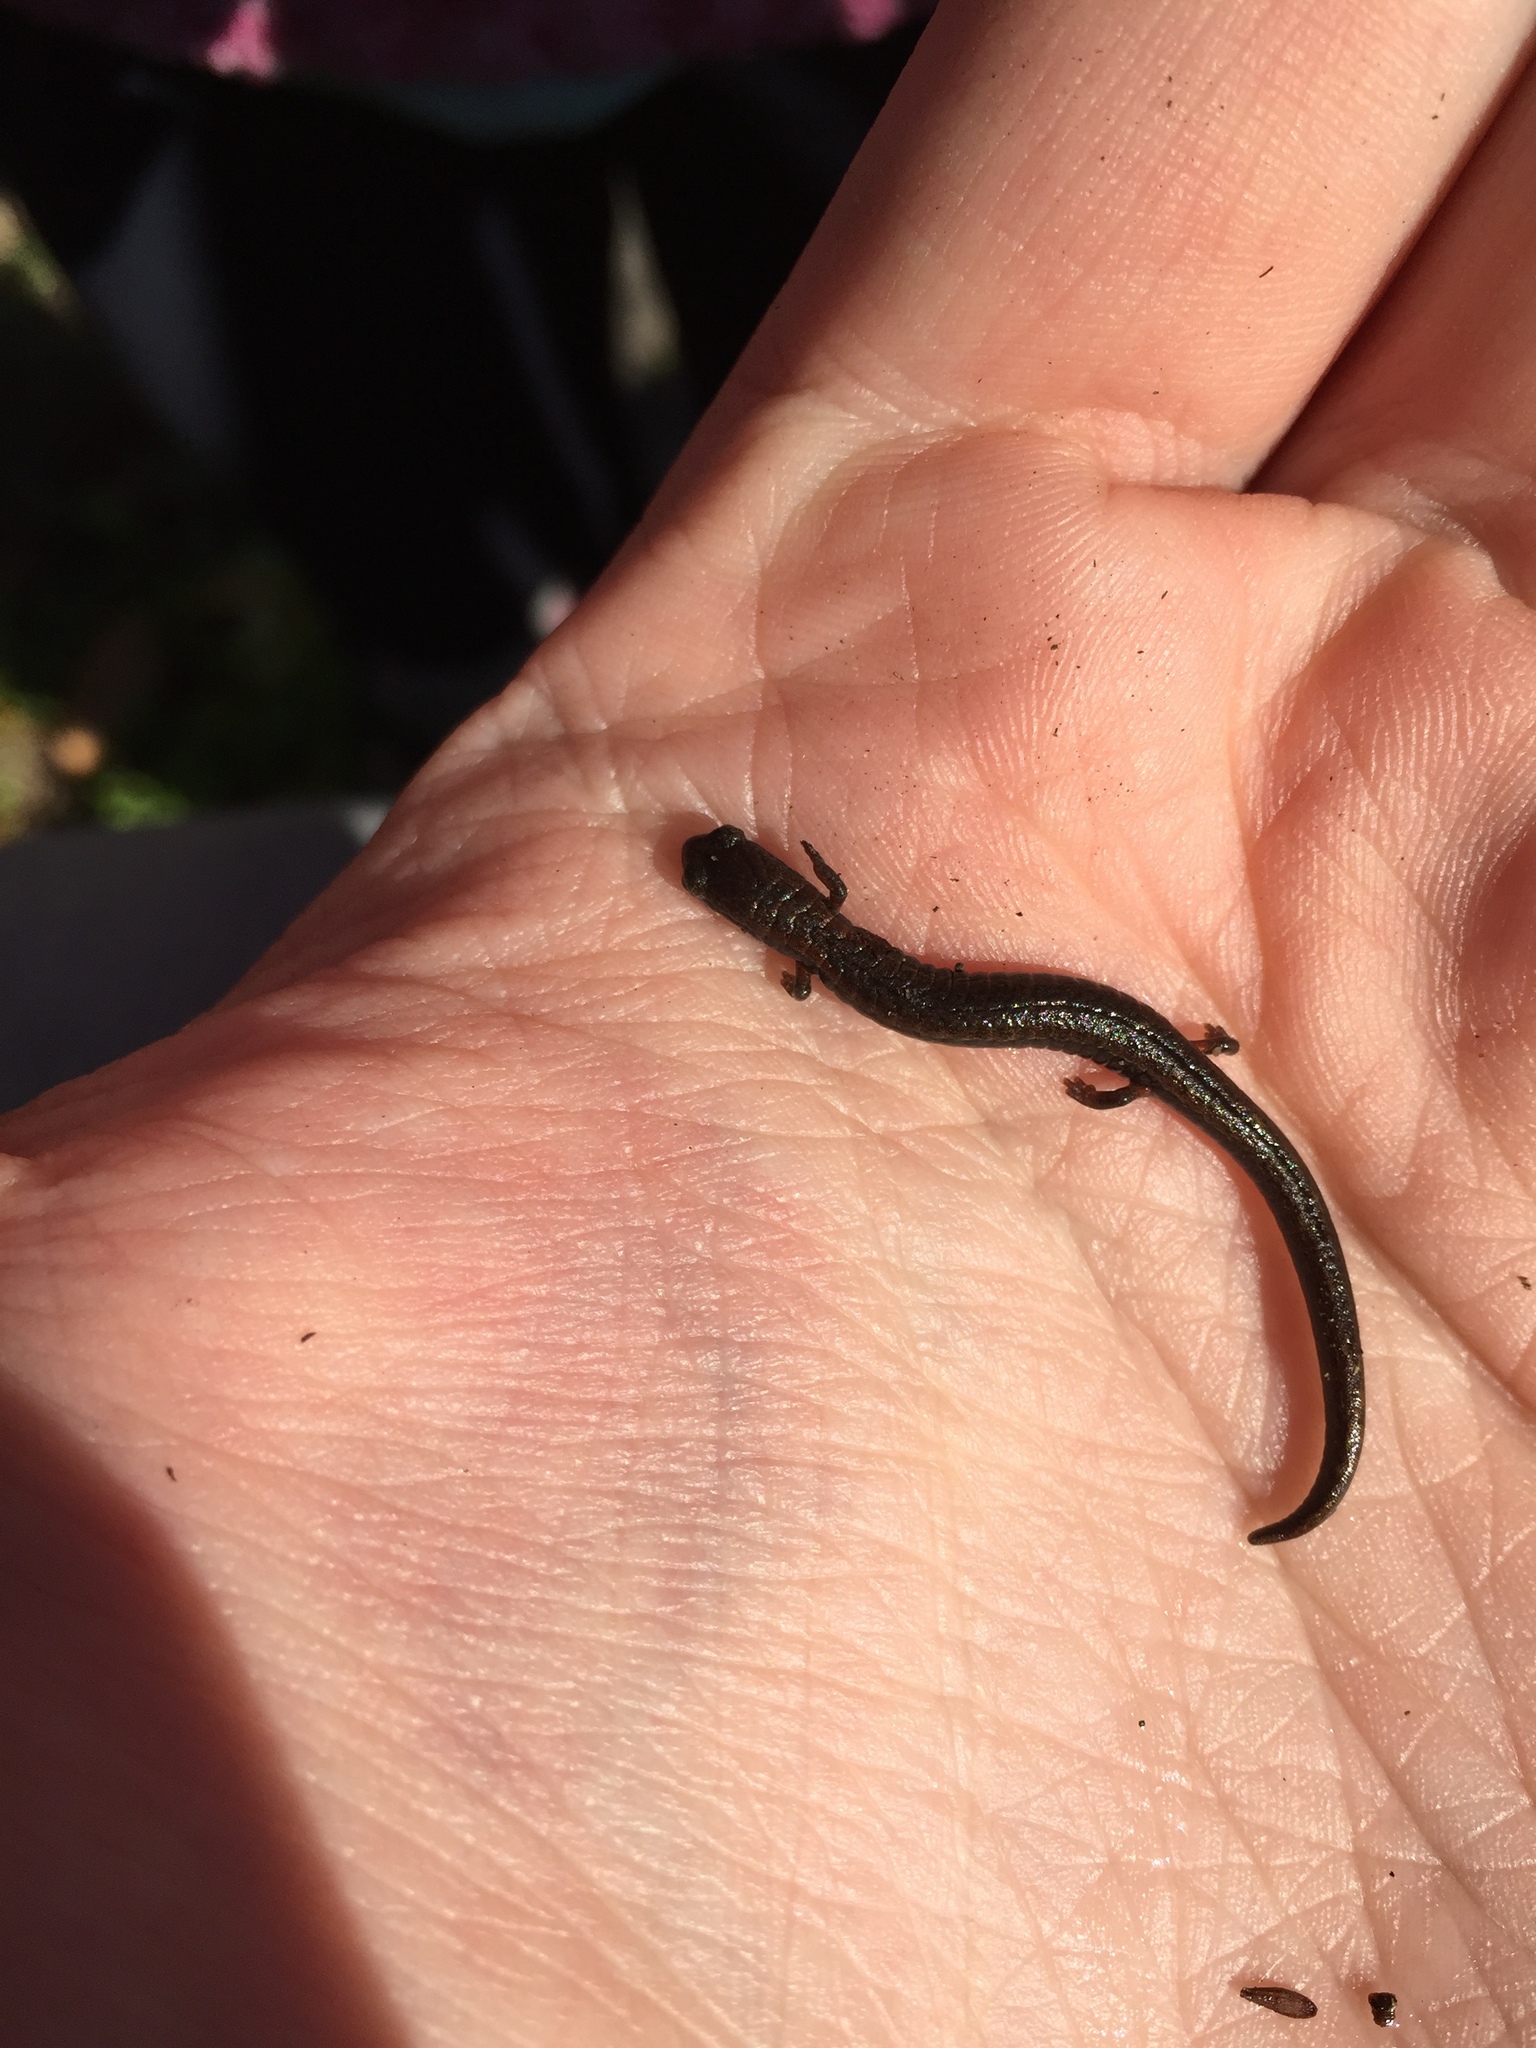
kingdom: Animalia
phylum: Chordata
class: Amphibia
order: Caudata
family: Plethodontidae
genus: Batrachoseps
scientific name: Batrachoseps attenuatus
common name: California slender salamander
